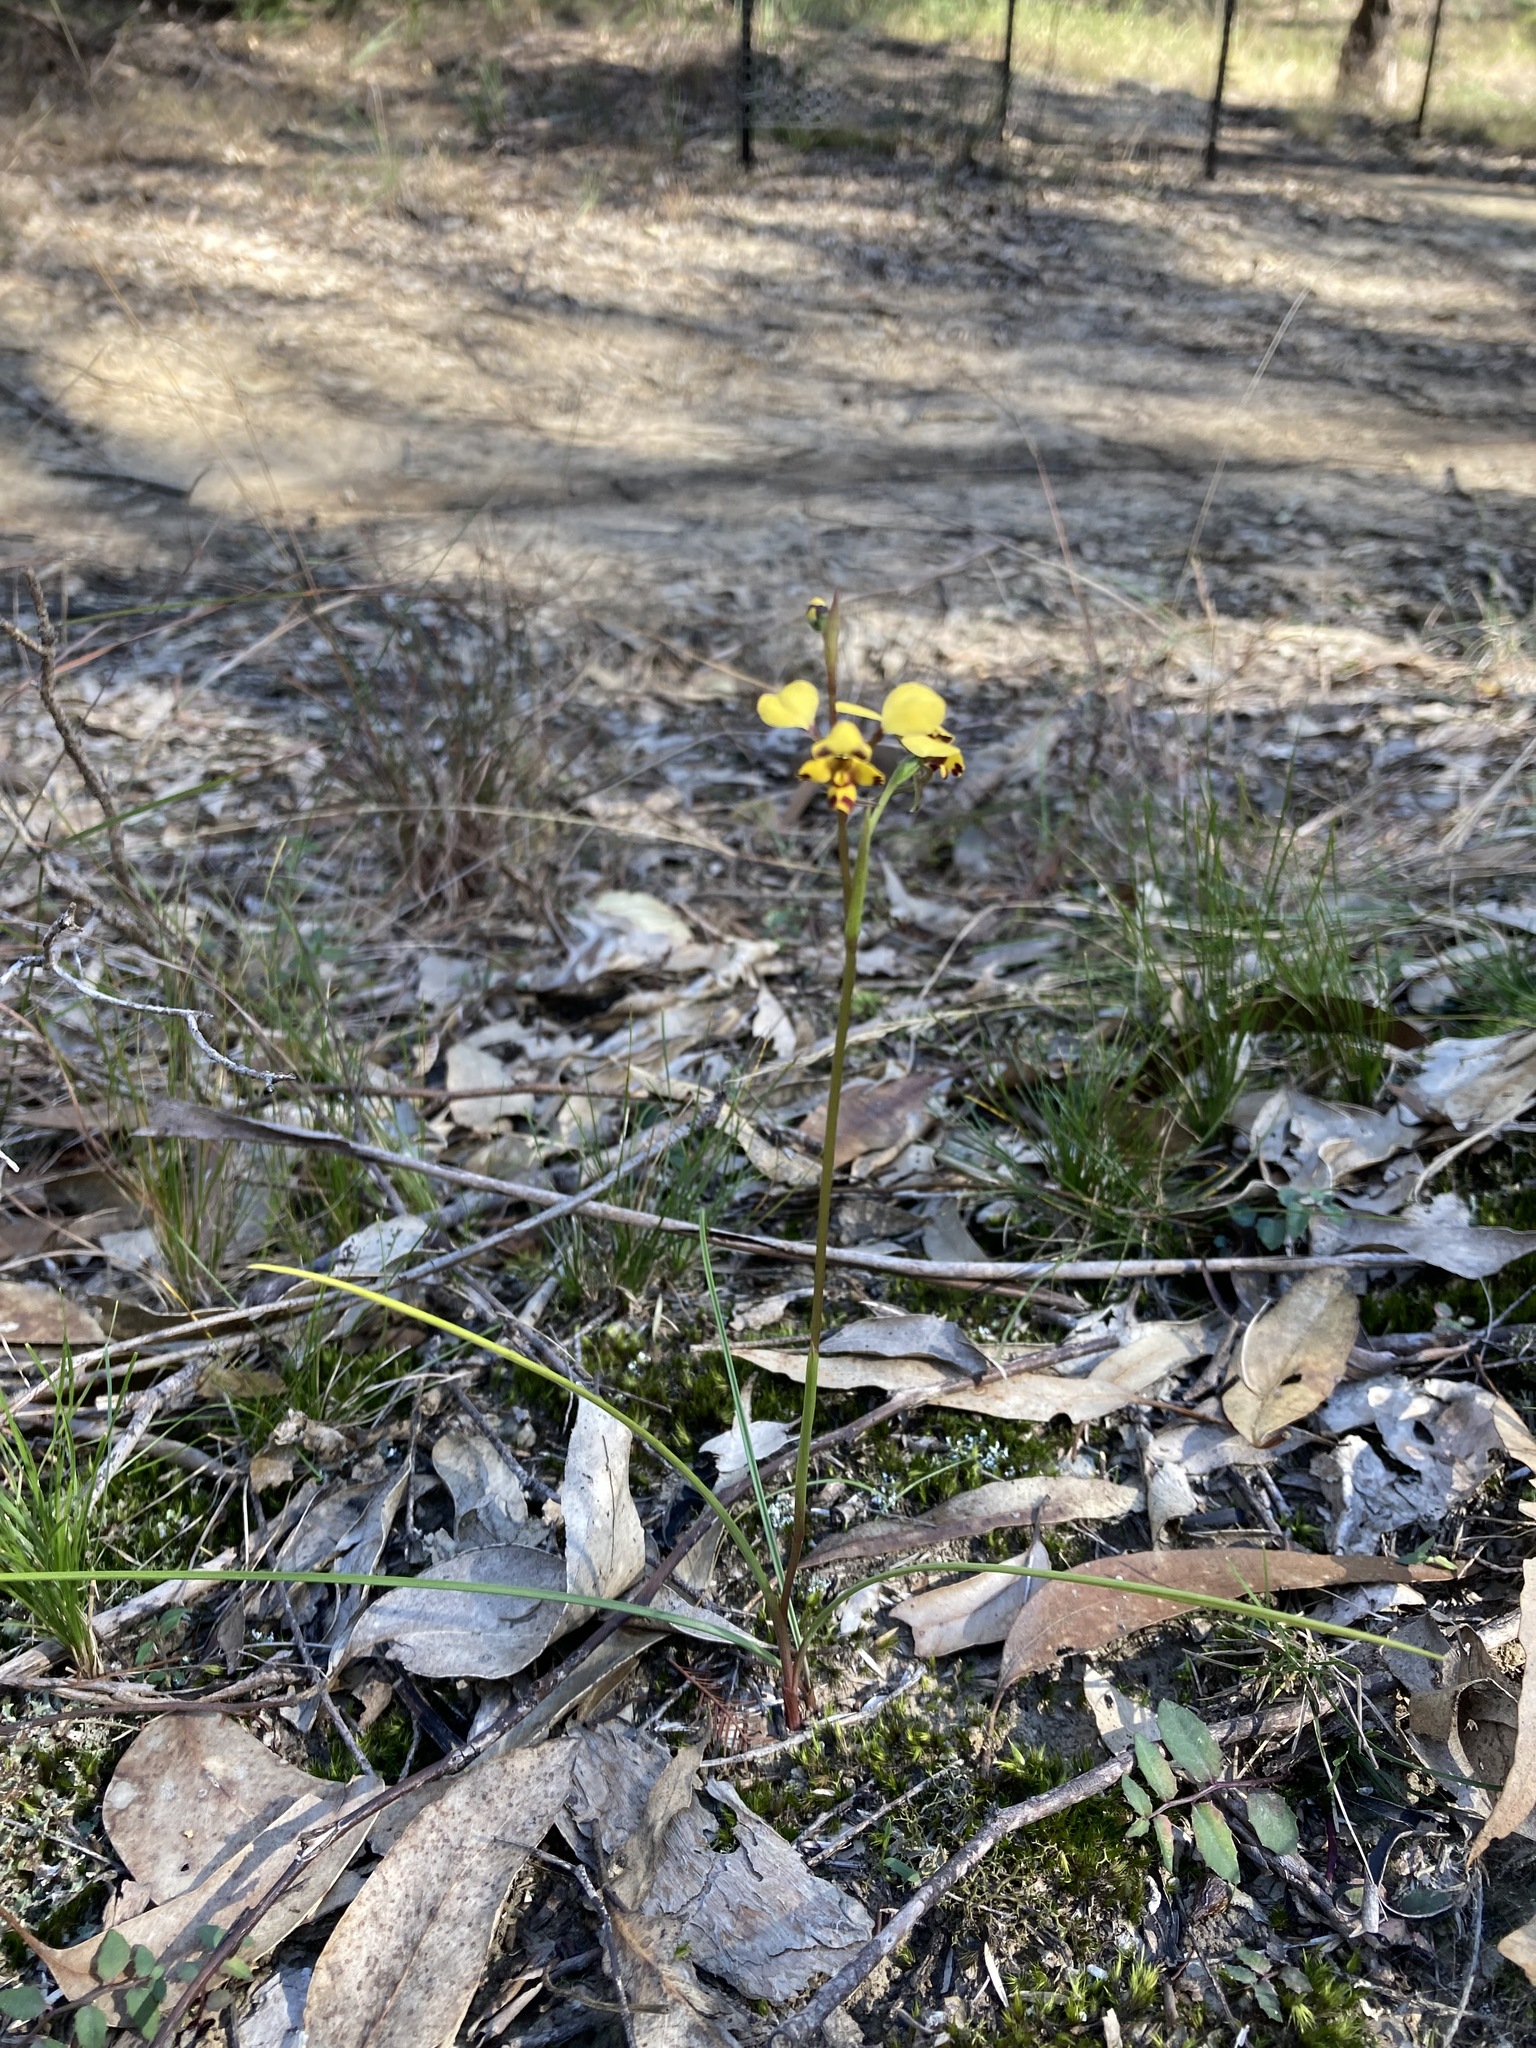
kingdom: Plantae
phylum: Tracheophyta
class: Liliopsida
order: Asparagales
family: Orchidaceae
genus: Diuris
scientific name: Diuris maculata
